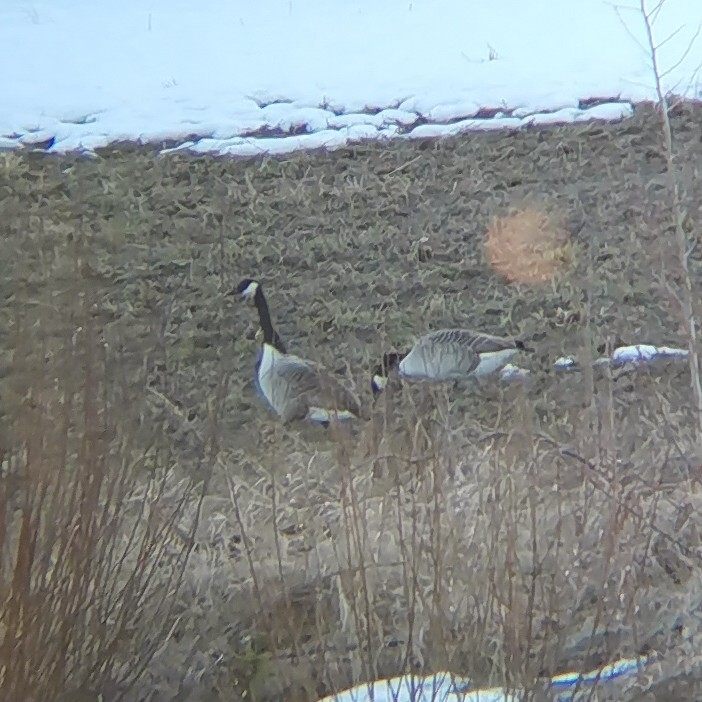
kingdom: Animalia
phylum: Chordata
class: Aves
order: Anseriformes
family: Anatidae
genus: Branta
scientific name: Branta canadensis
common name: Canada goose
